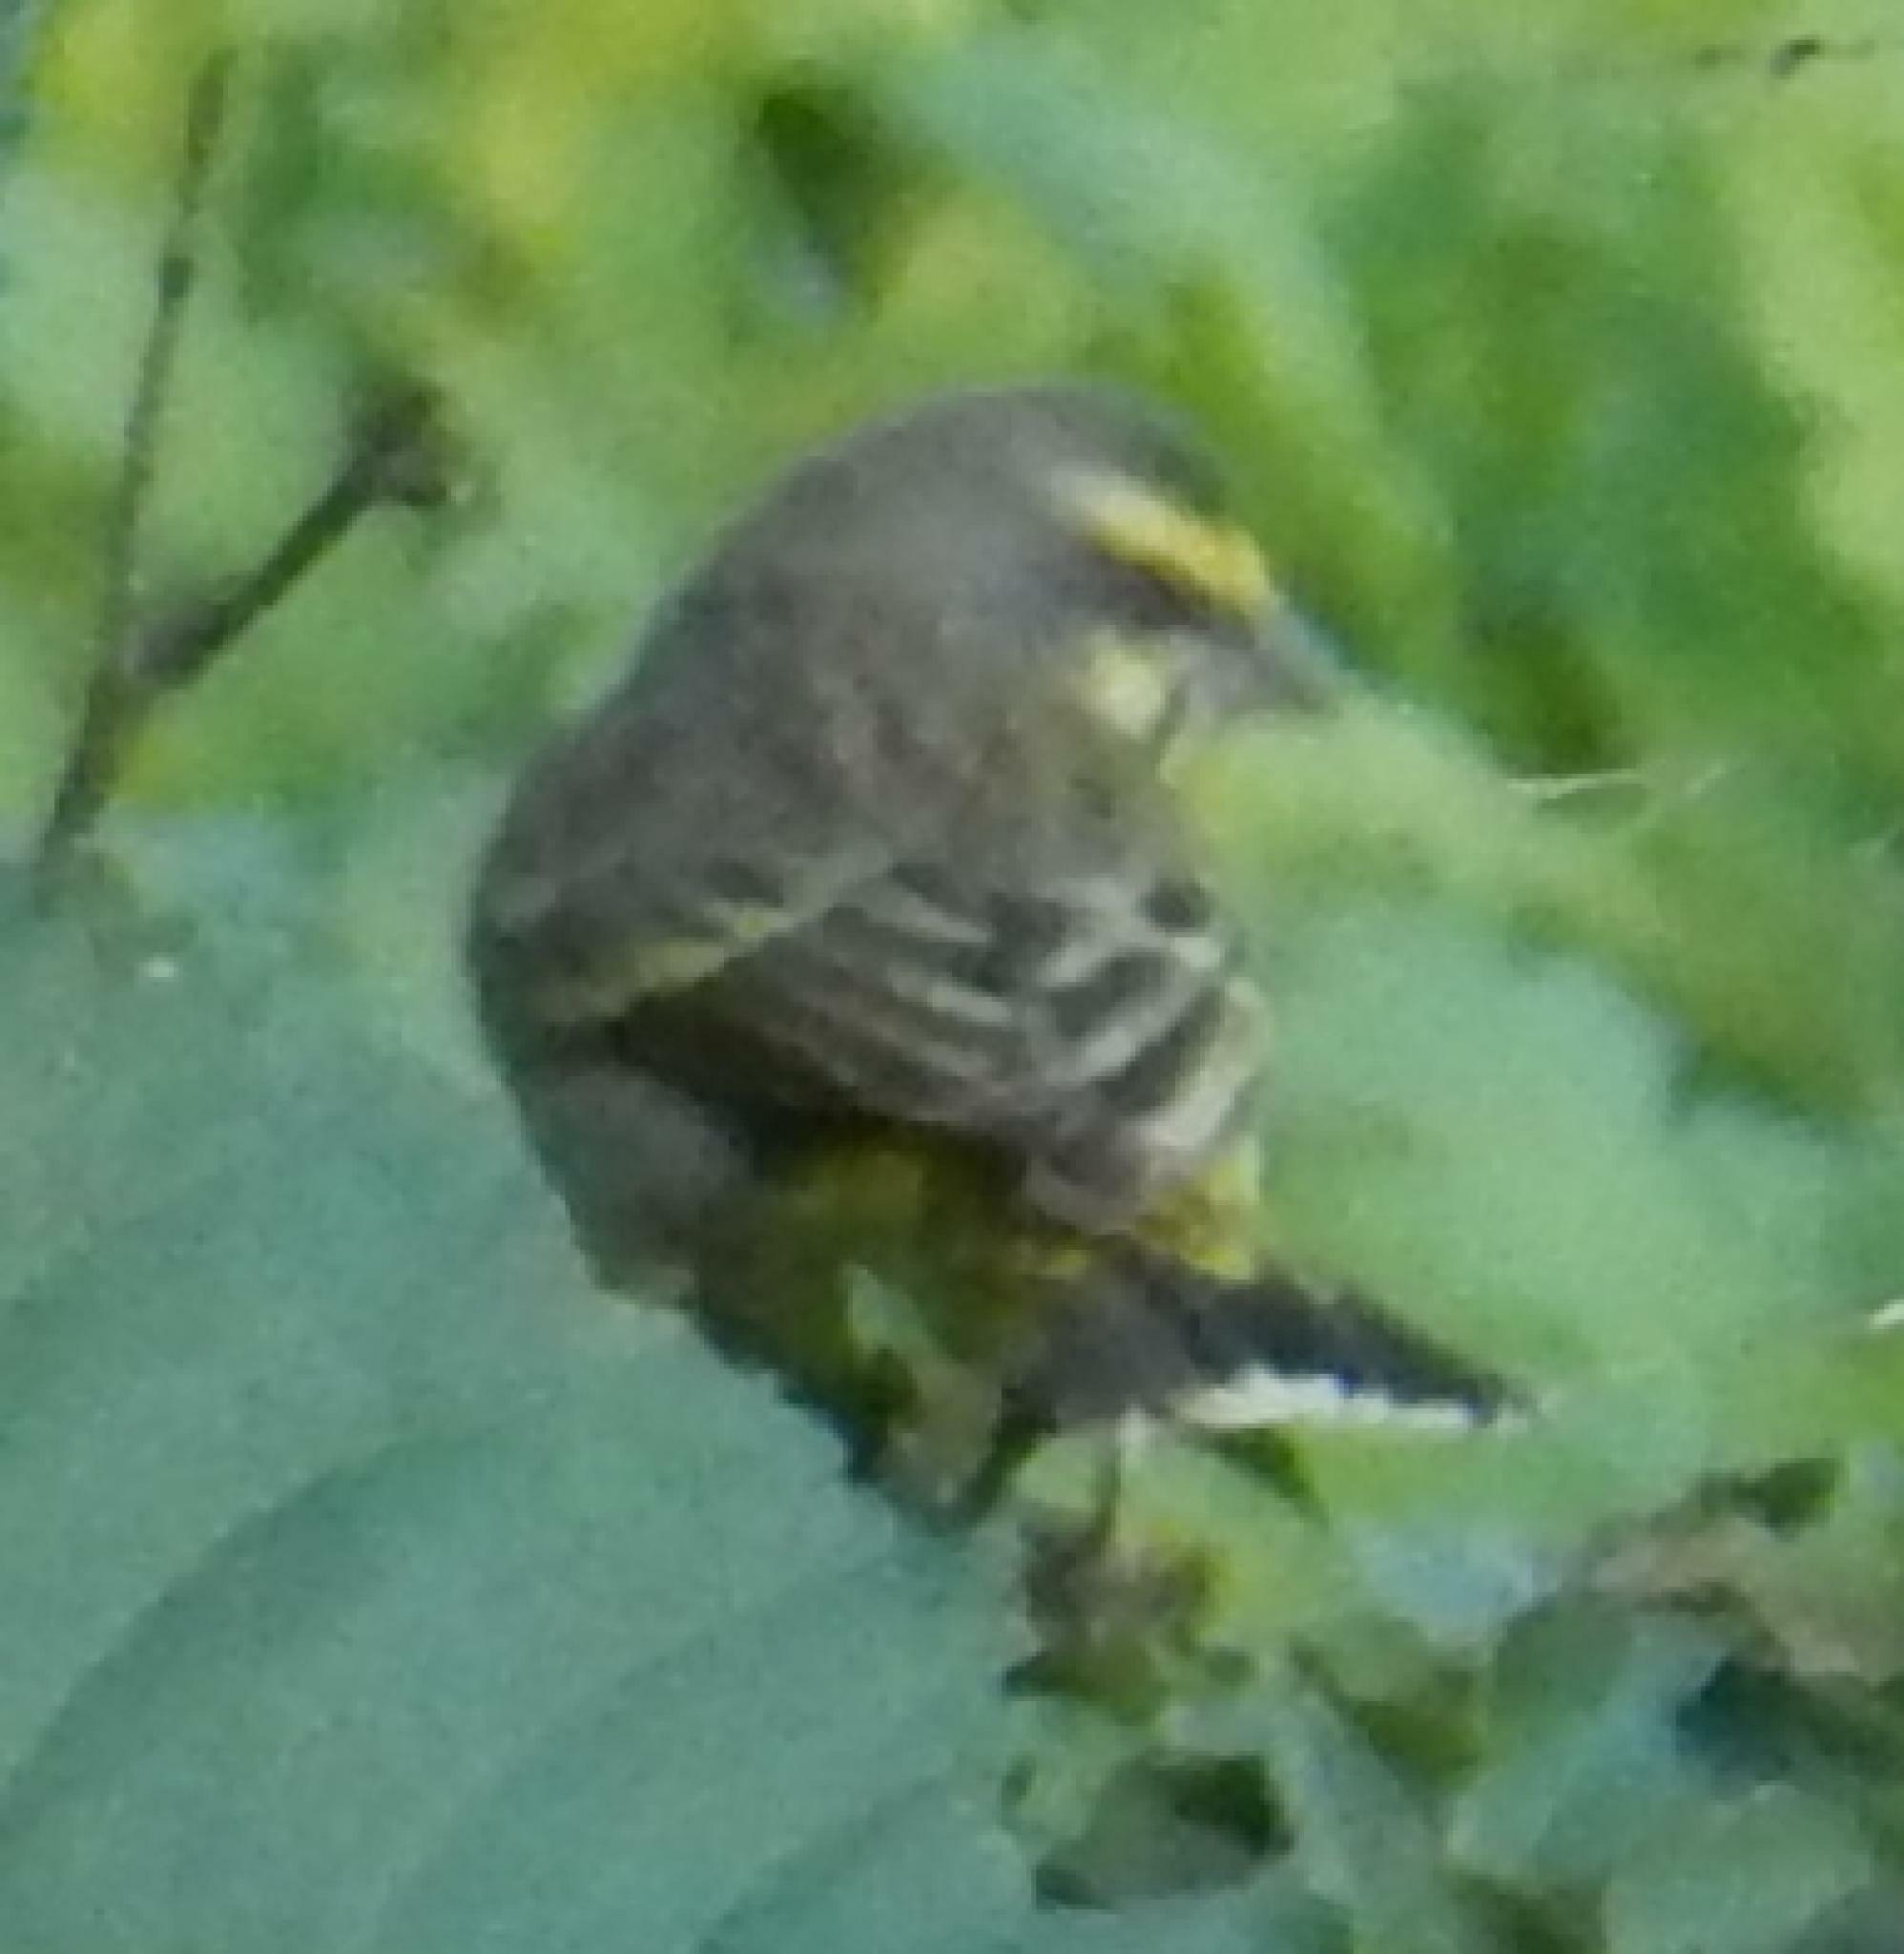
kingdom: Animalia
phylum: Chordata
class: Aves
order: Passeriformes
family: Fringillidae
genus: Crithagra
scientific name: Crithagra mozambica
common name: Yellow-fronted canary
